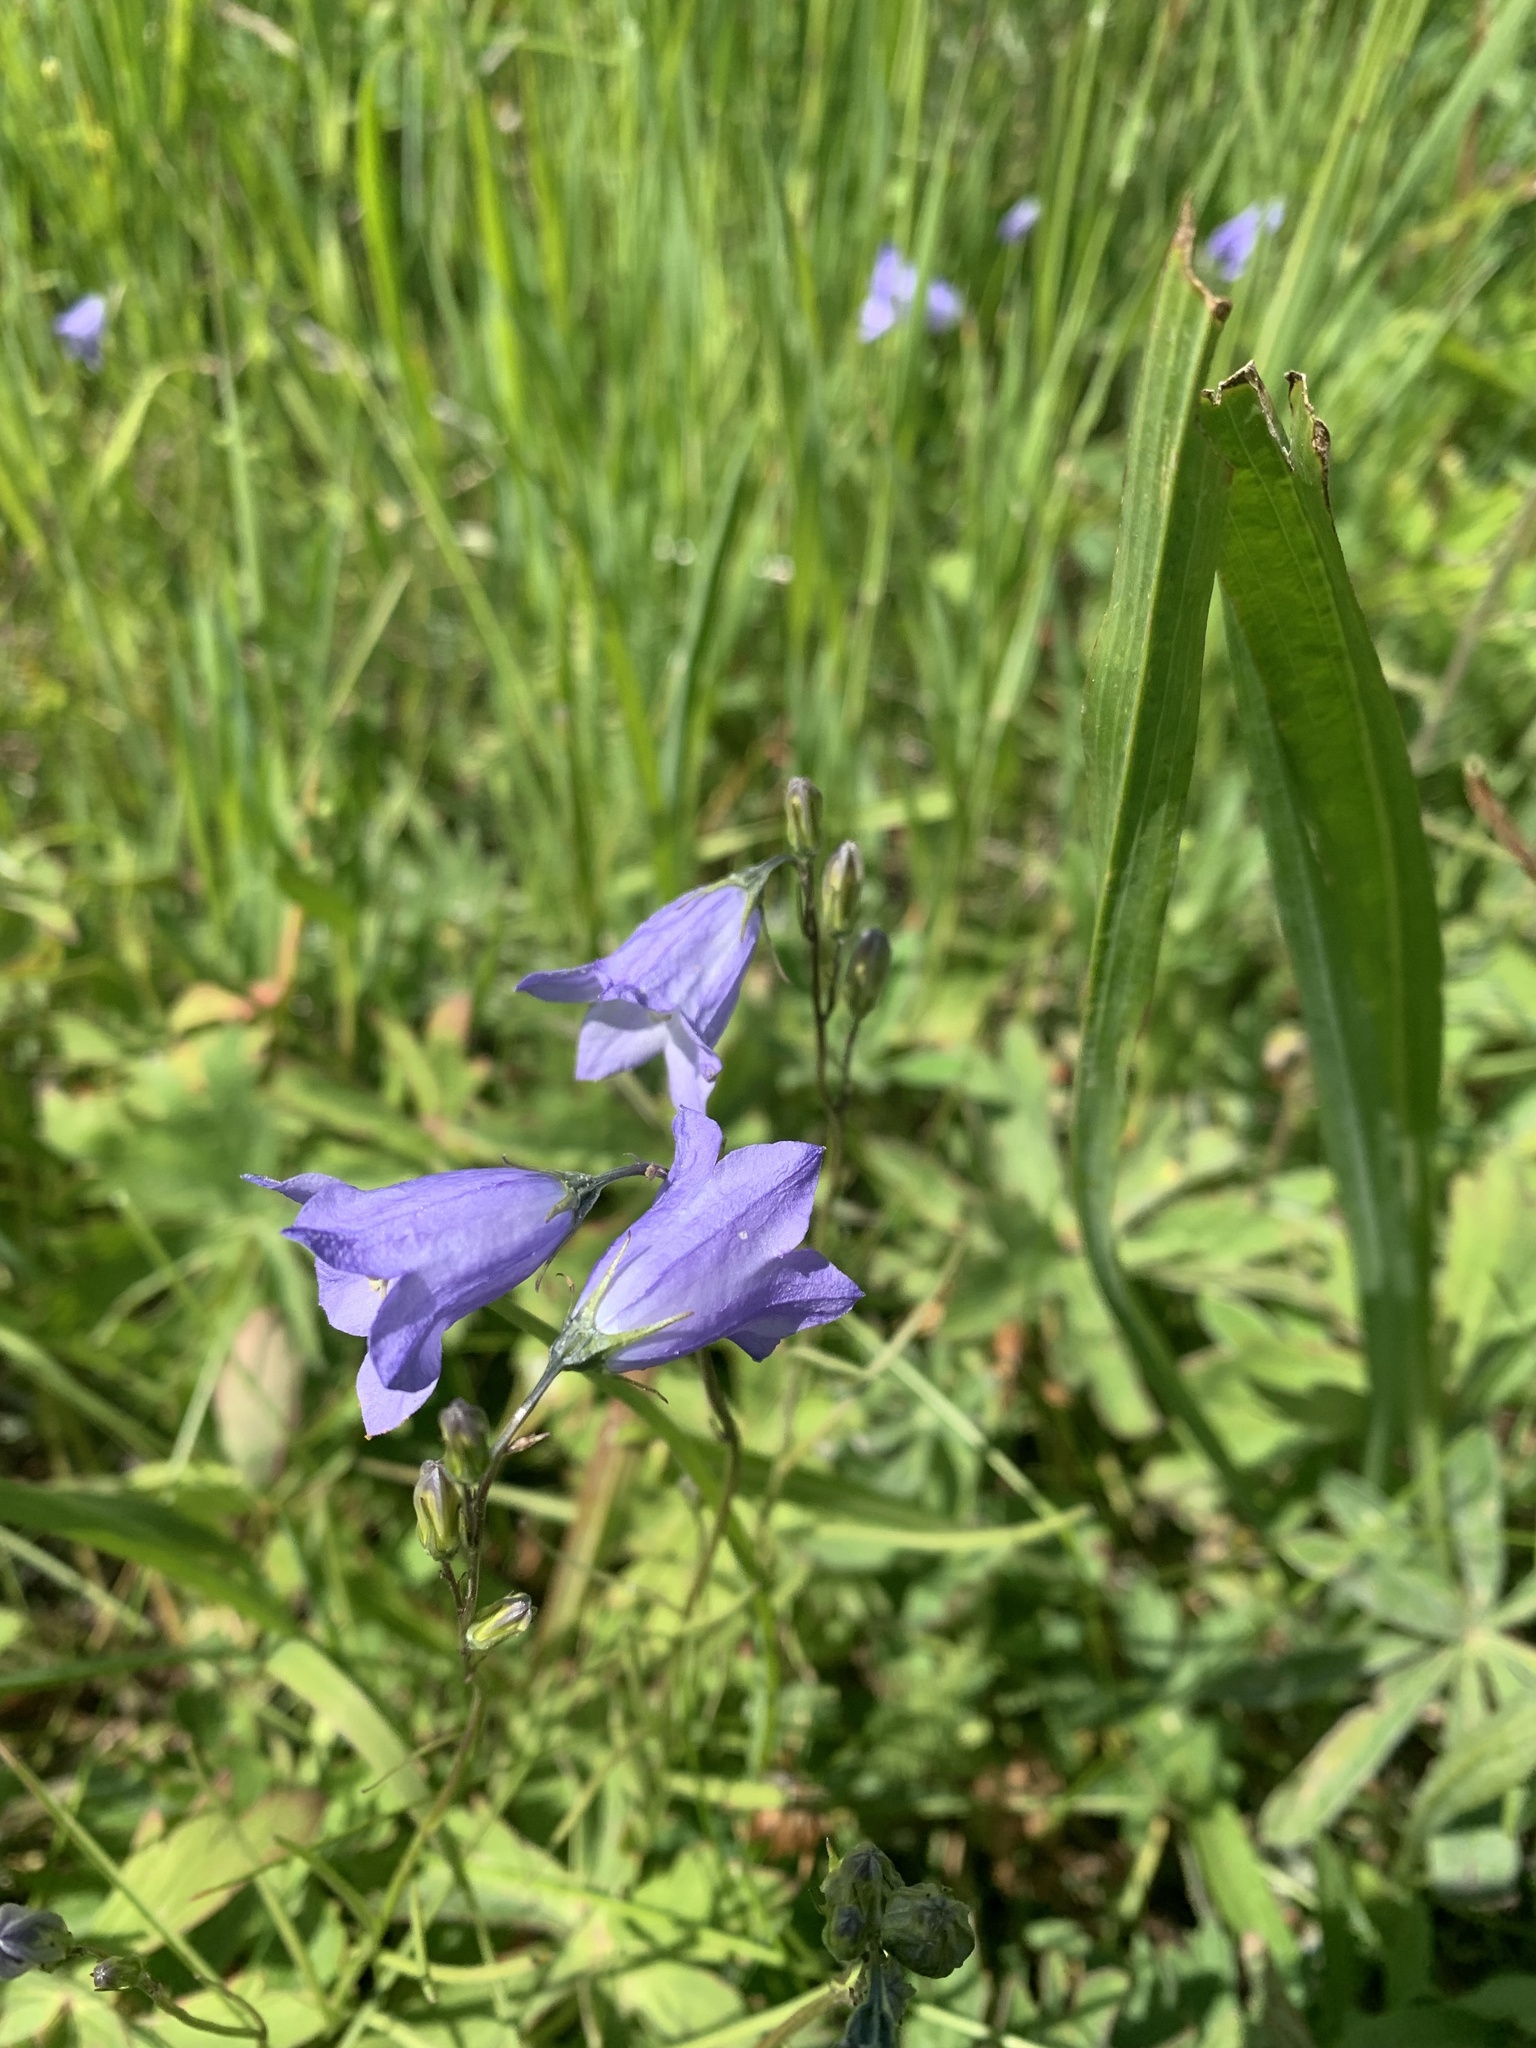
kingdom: Plantae
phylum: Tracheophyta
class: Magnoliopsida
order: Asterales
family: Campanulaceae
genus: Campanula
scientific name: Campanula
